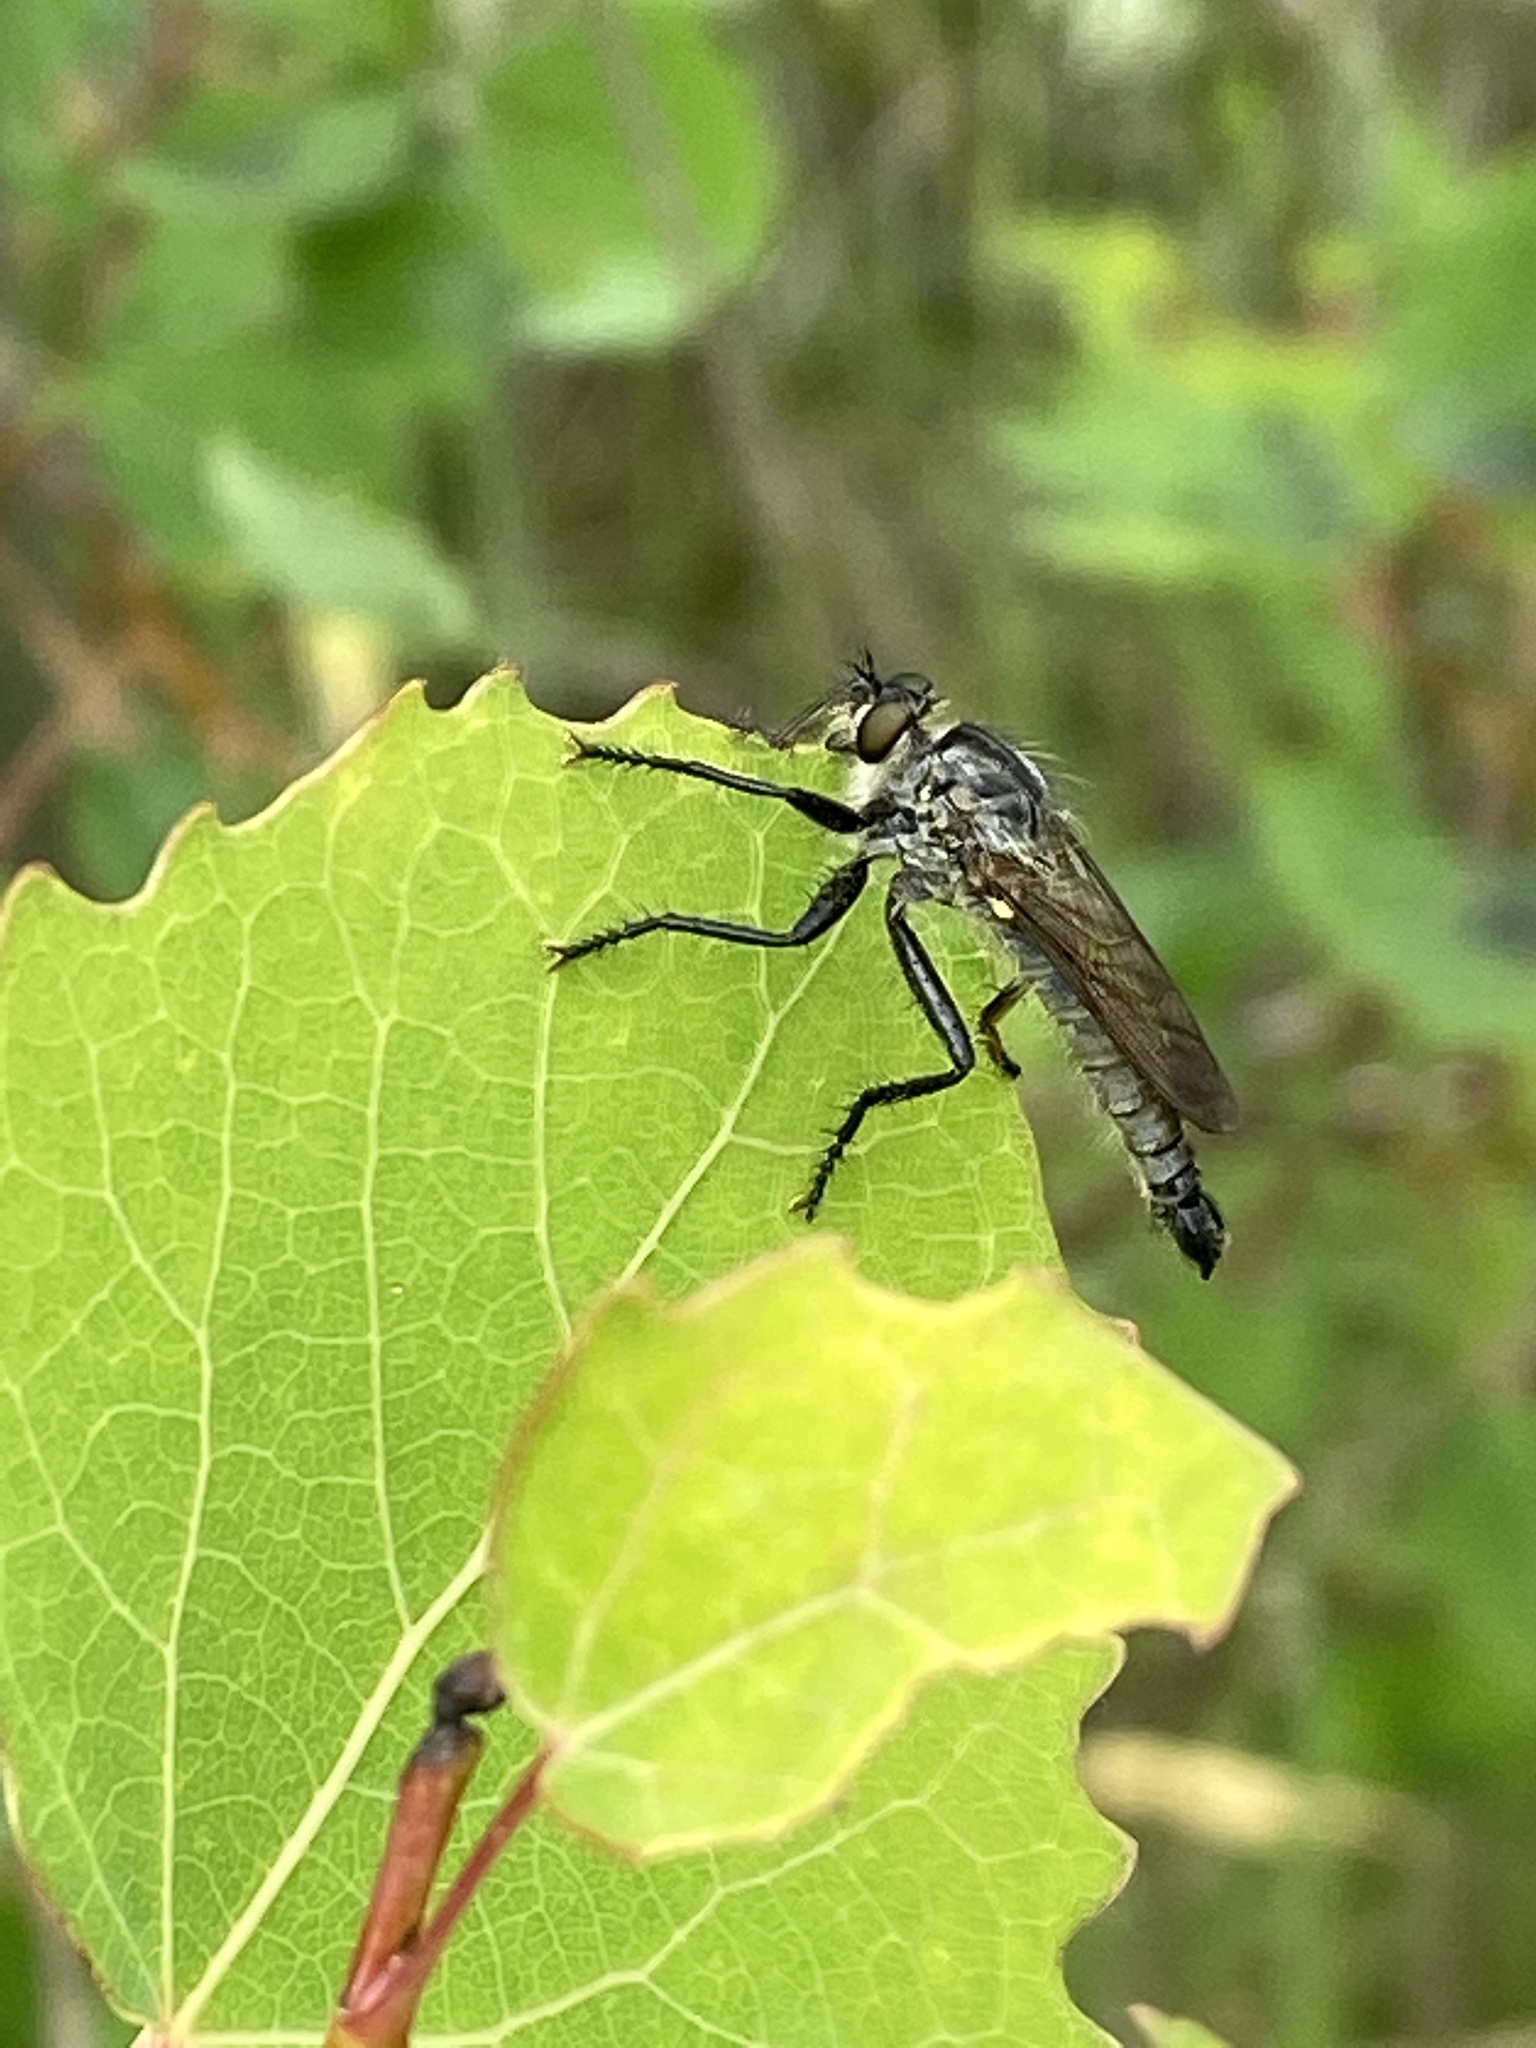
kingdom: Animalia
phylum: Arthropoda
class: Insecta
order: Diptera
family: Asilidae
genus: Didysmachus
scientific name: Didysmachus picipes
